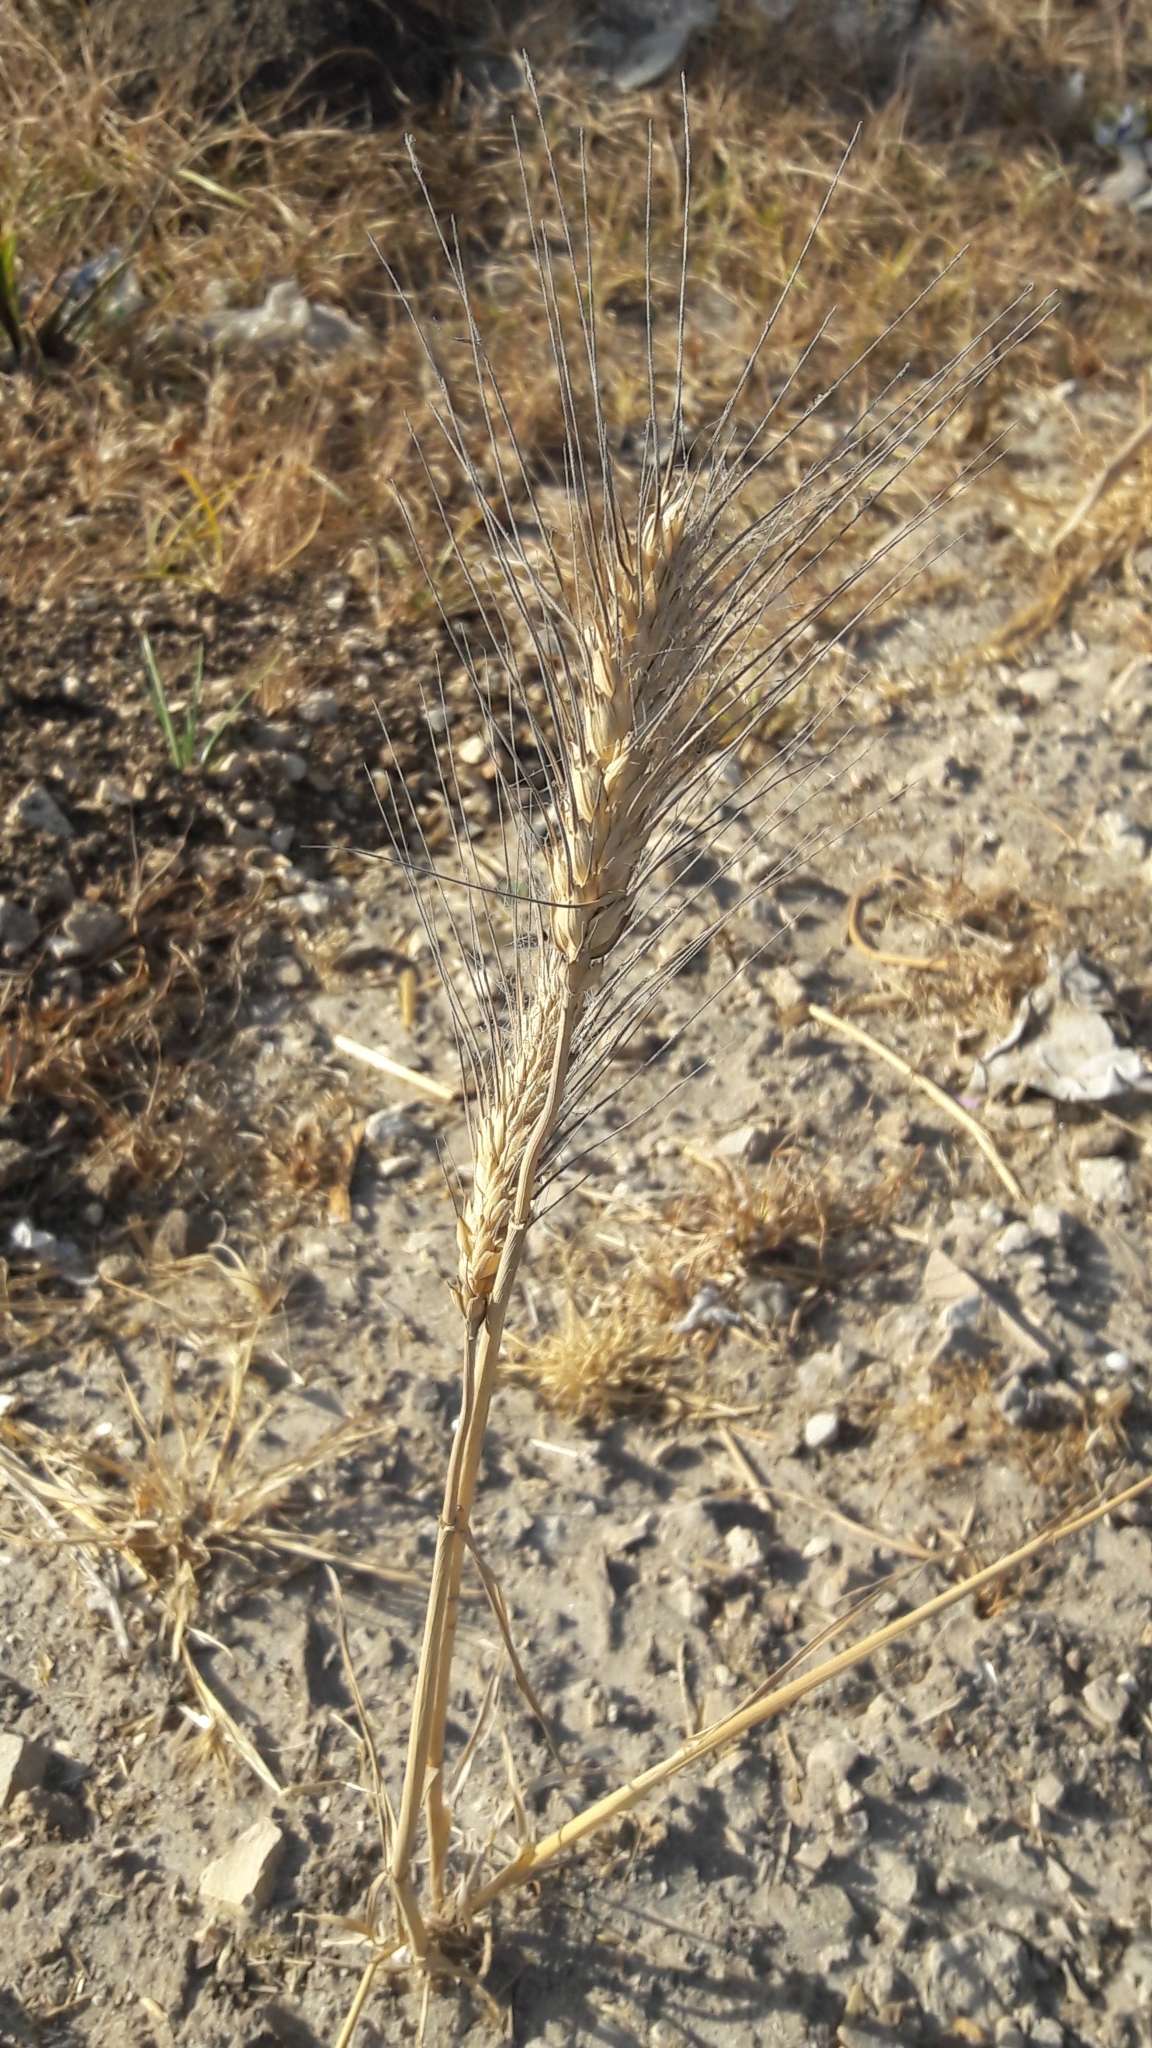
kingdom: Plantae
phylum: Tracheophyta
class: Liliopsida
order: Poales
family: Poaceae
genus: Triticum
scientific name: Triticum aestivum
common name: Common wheat
